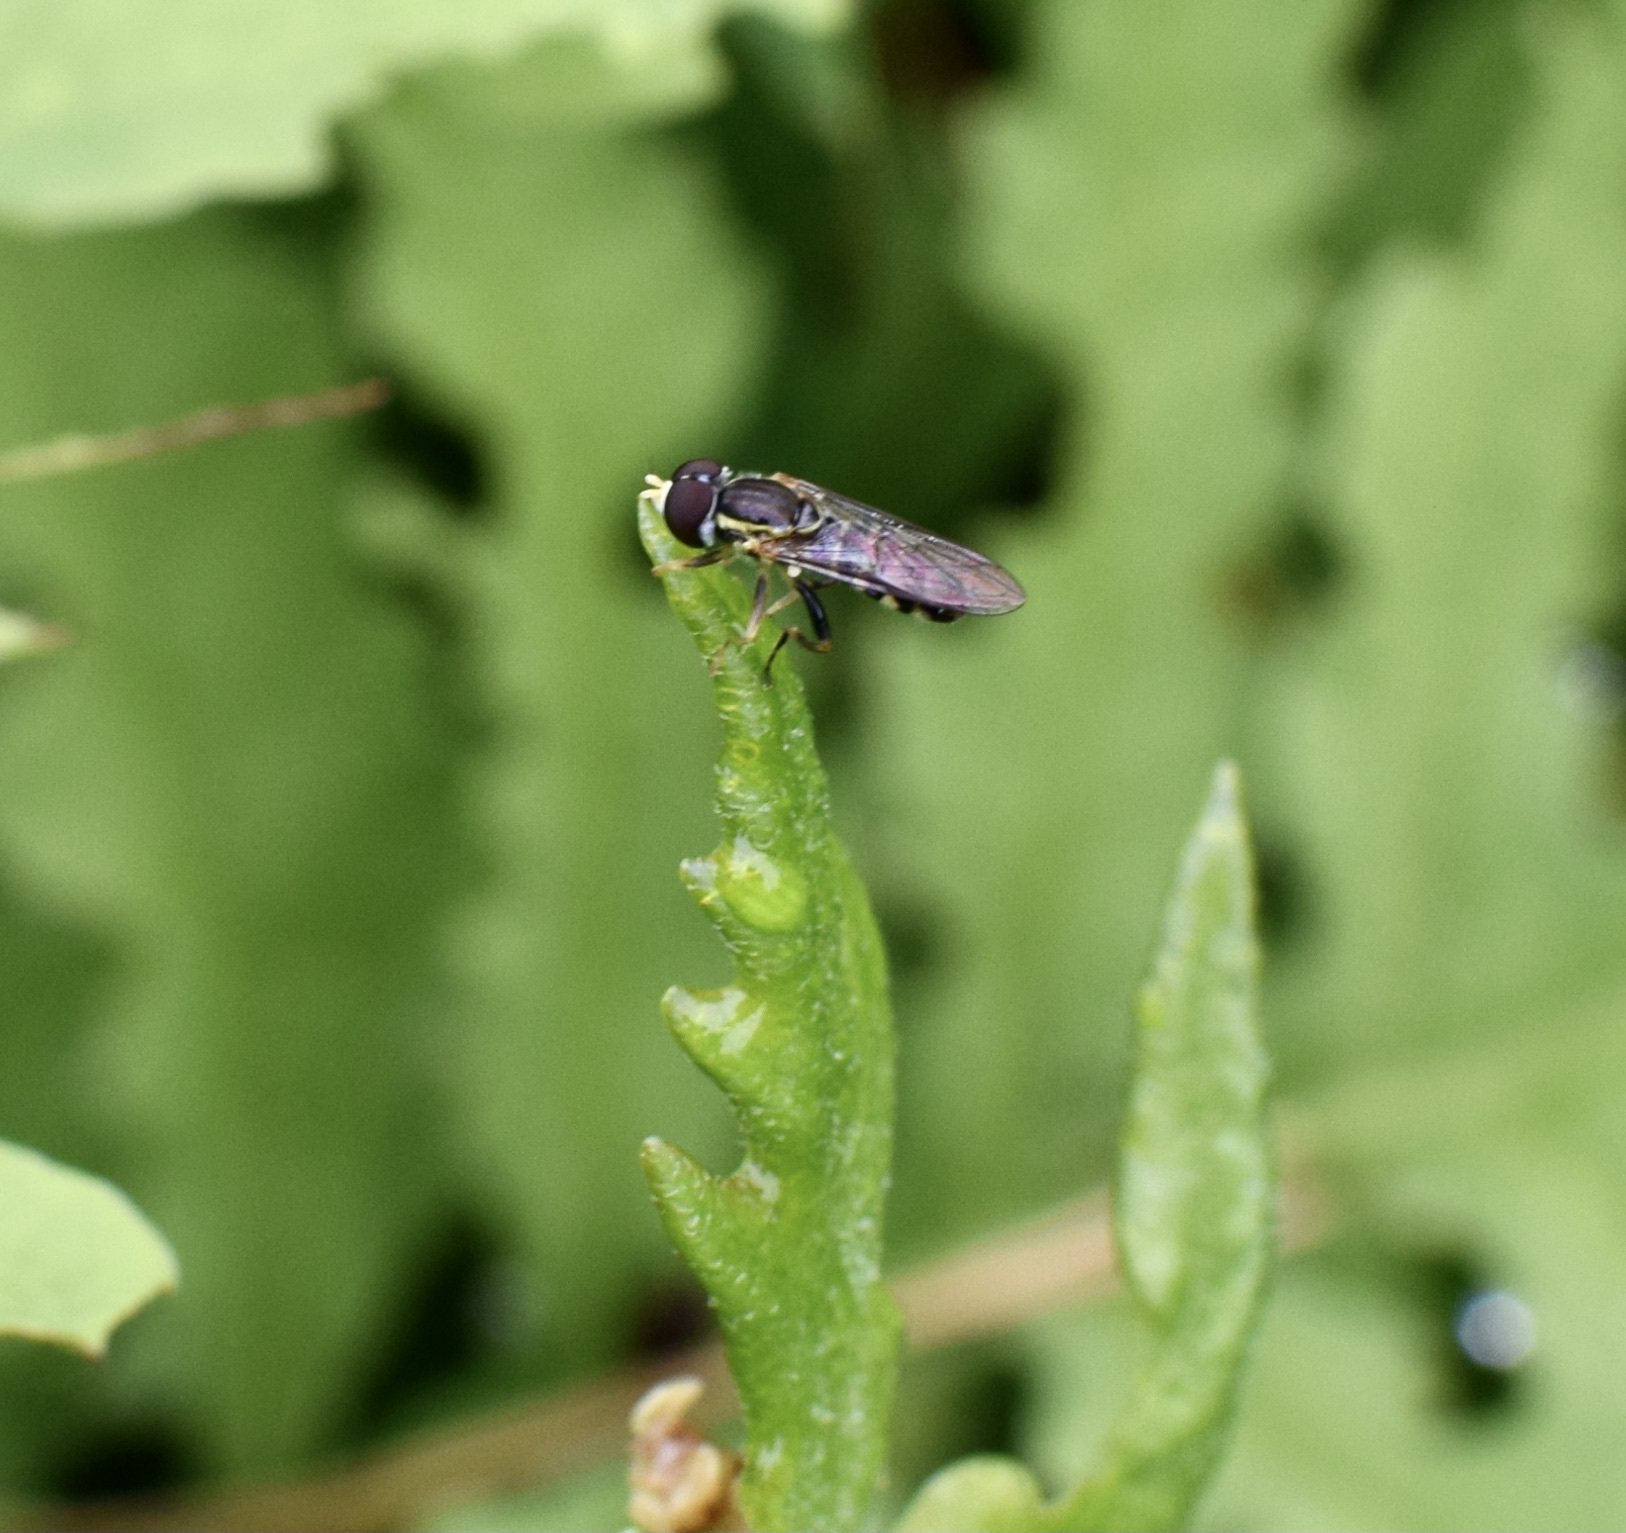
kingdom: Animalia
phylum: Arthropoda
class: Insecta
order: Diptera
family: Syrphidae
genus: Toxomerus
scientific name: Toxomerus geminatus
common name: Eastern calligrapher
